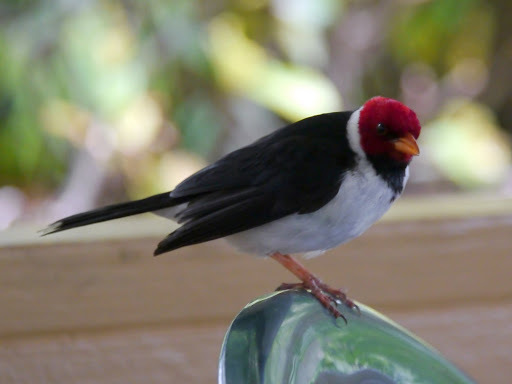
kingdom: Animalia
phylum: Chordata
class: Aves
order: Passeriformes
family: Thraupidae
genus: Paroaria
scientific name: Paroaria capitata
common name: Yellow-billed cardinal
